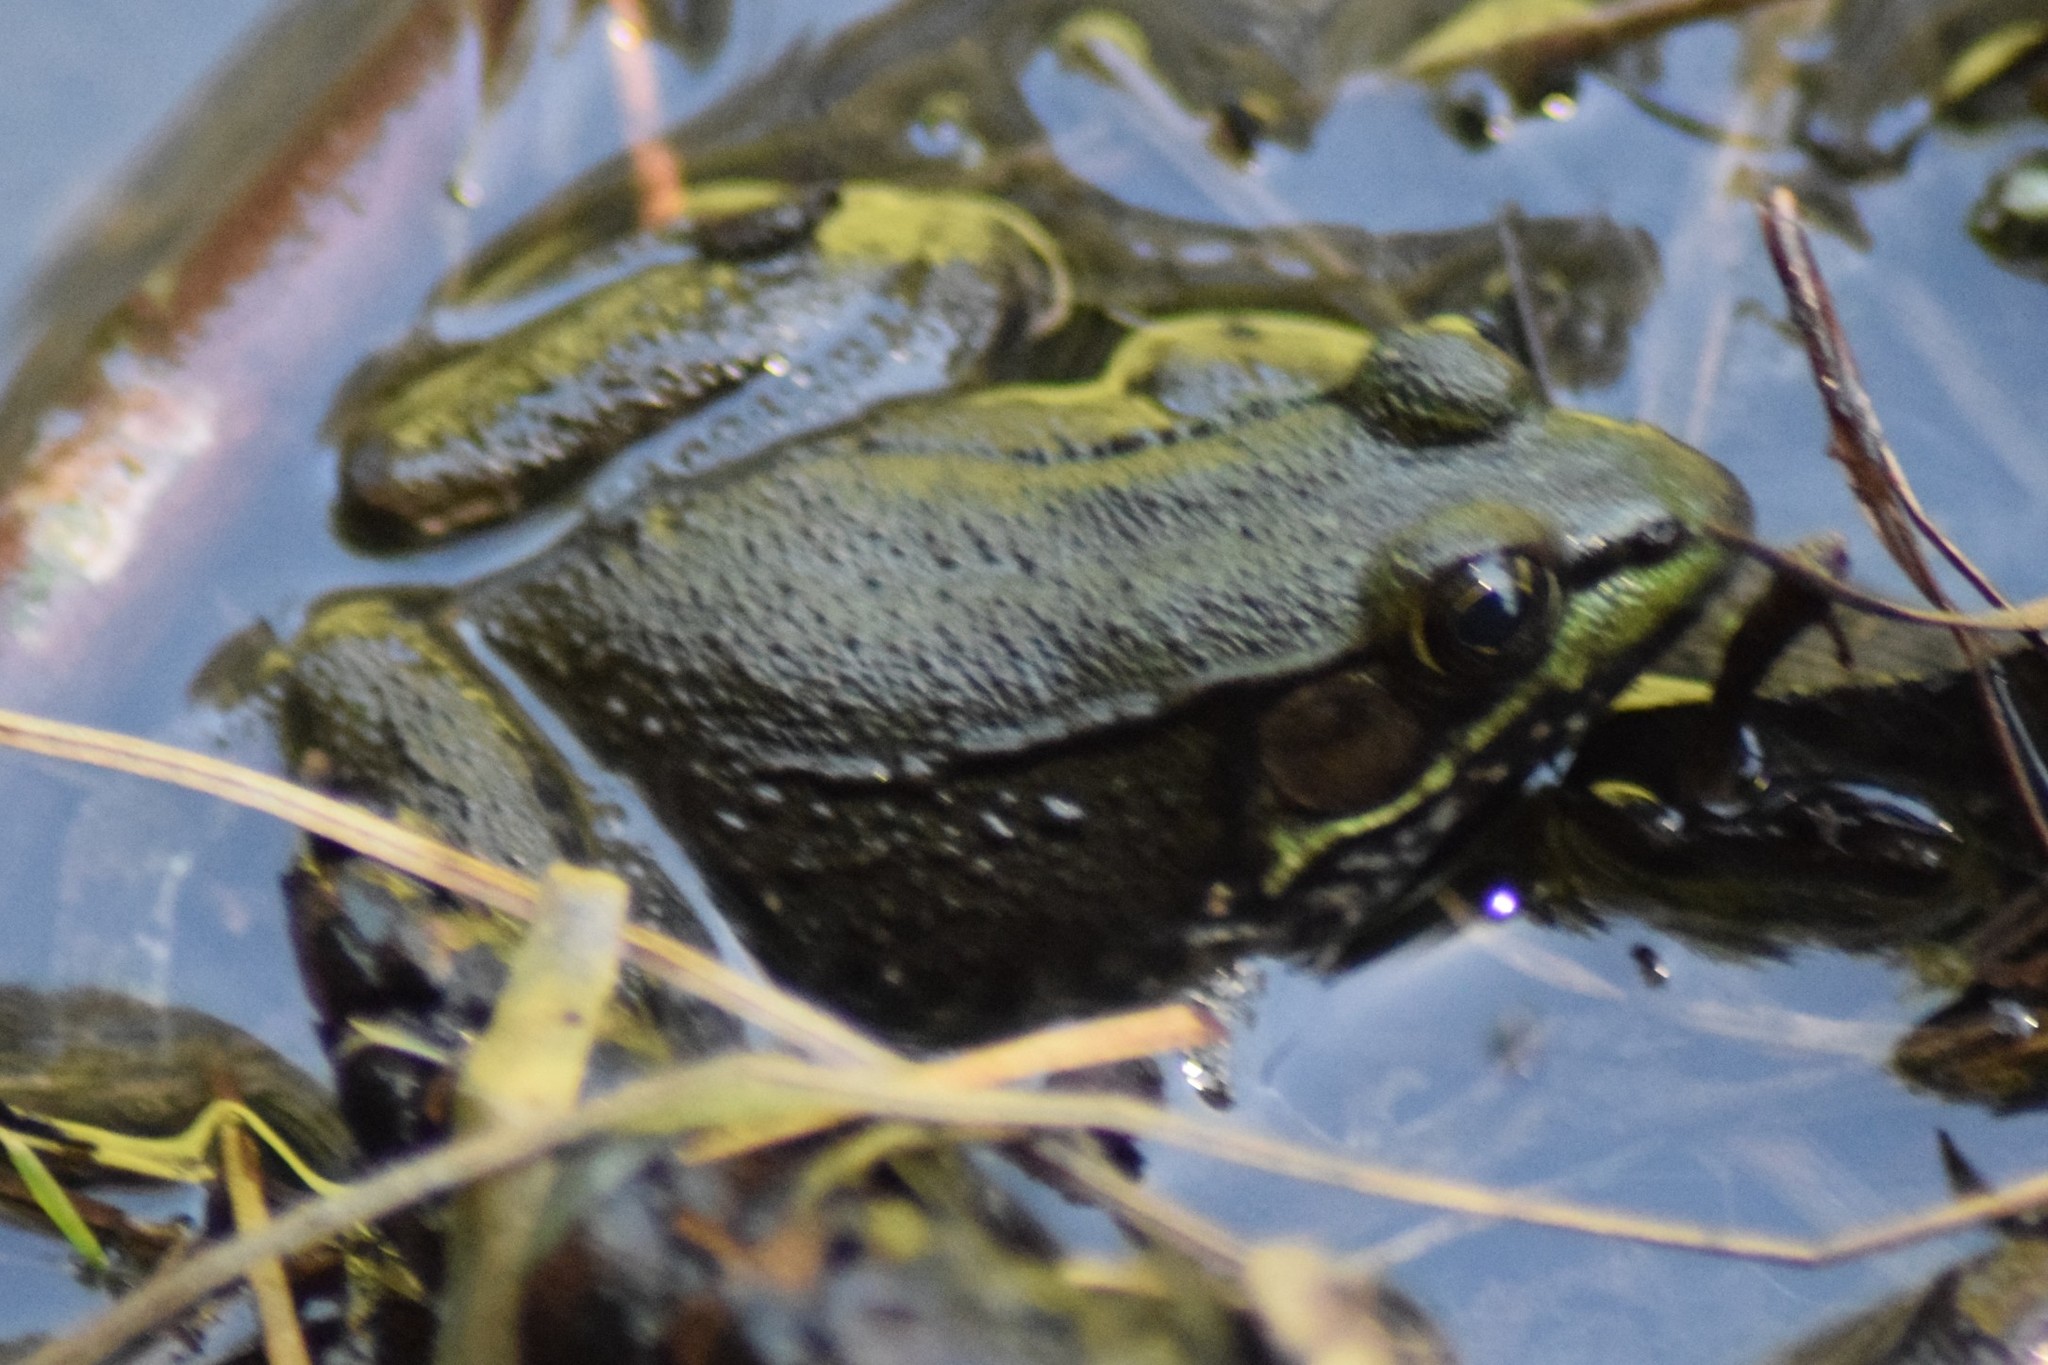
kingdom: Animalia
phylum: Chordata
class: Amphibia
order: Anura
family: Ranidae
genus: Lithobates
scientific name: Lithobates clamitans
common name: Green frog
